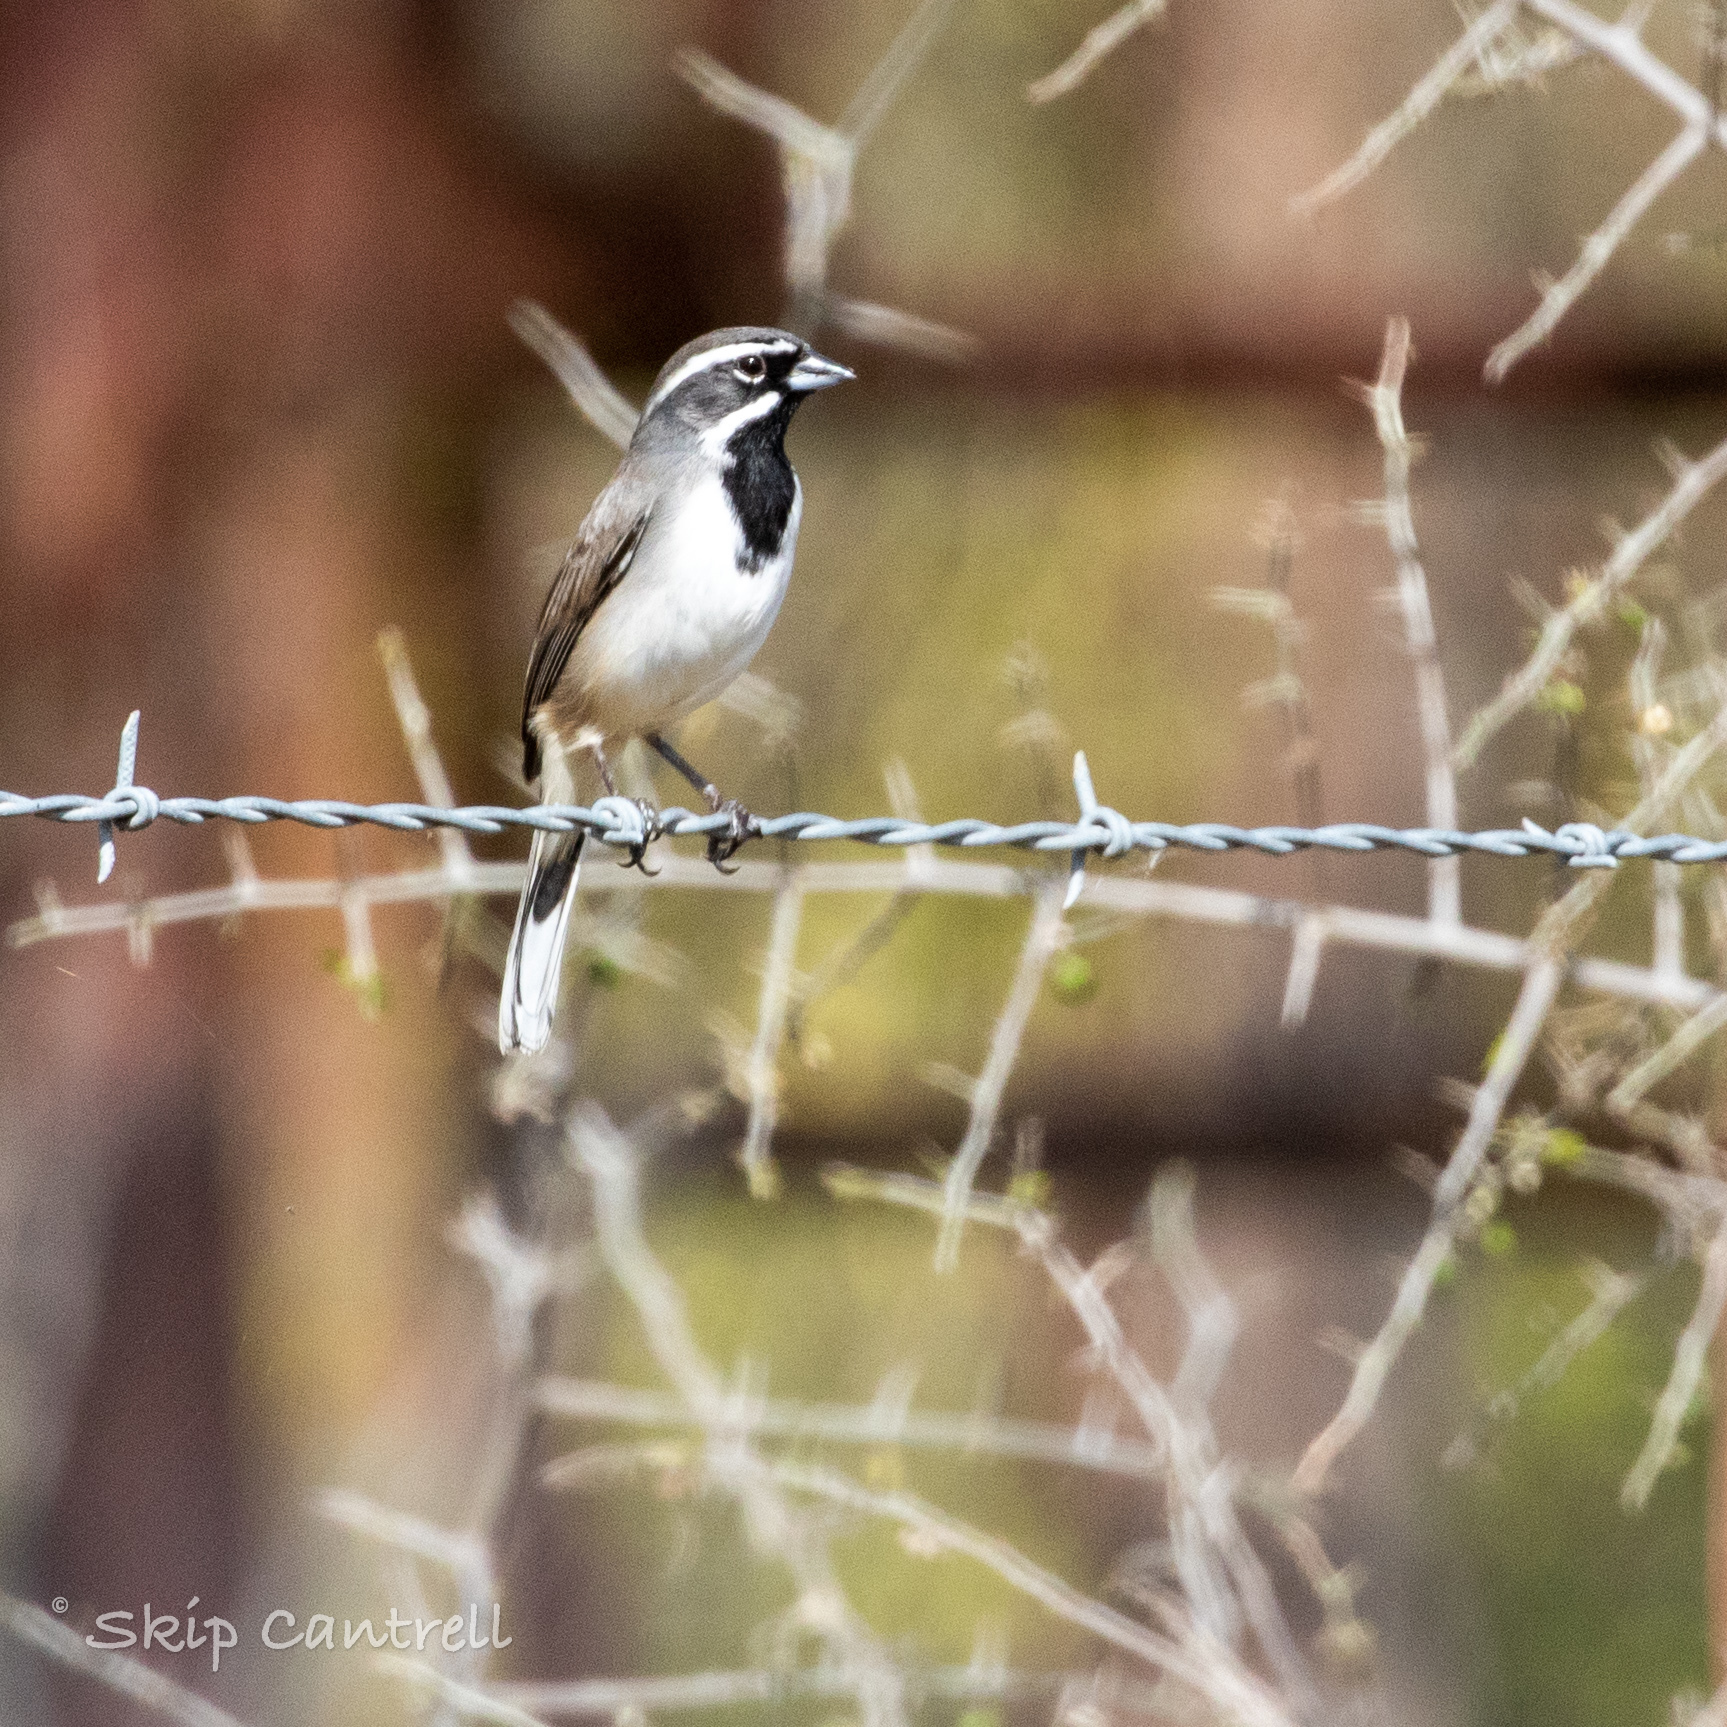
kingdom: Animalia
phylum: Chordata
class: Aves
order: Passeriformes
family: Passerellidae
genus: Amphispiza
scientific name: Amphispiza bilineata
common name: Black-throated sparrow
